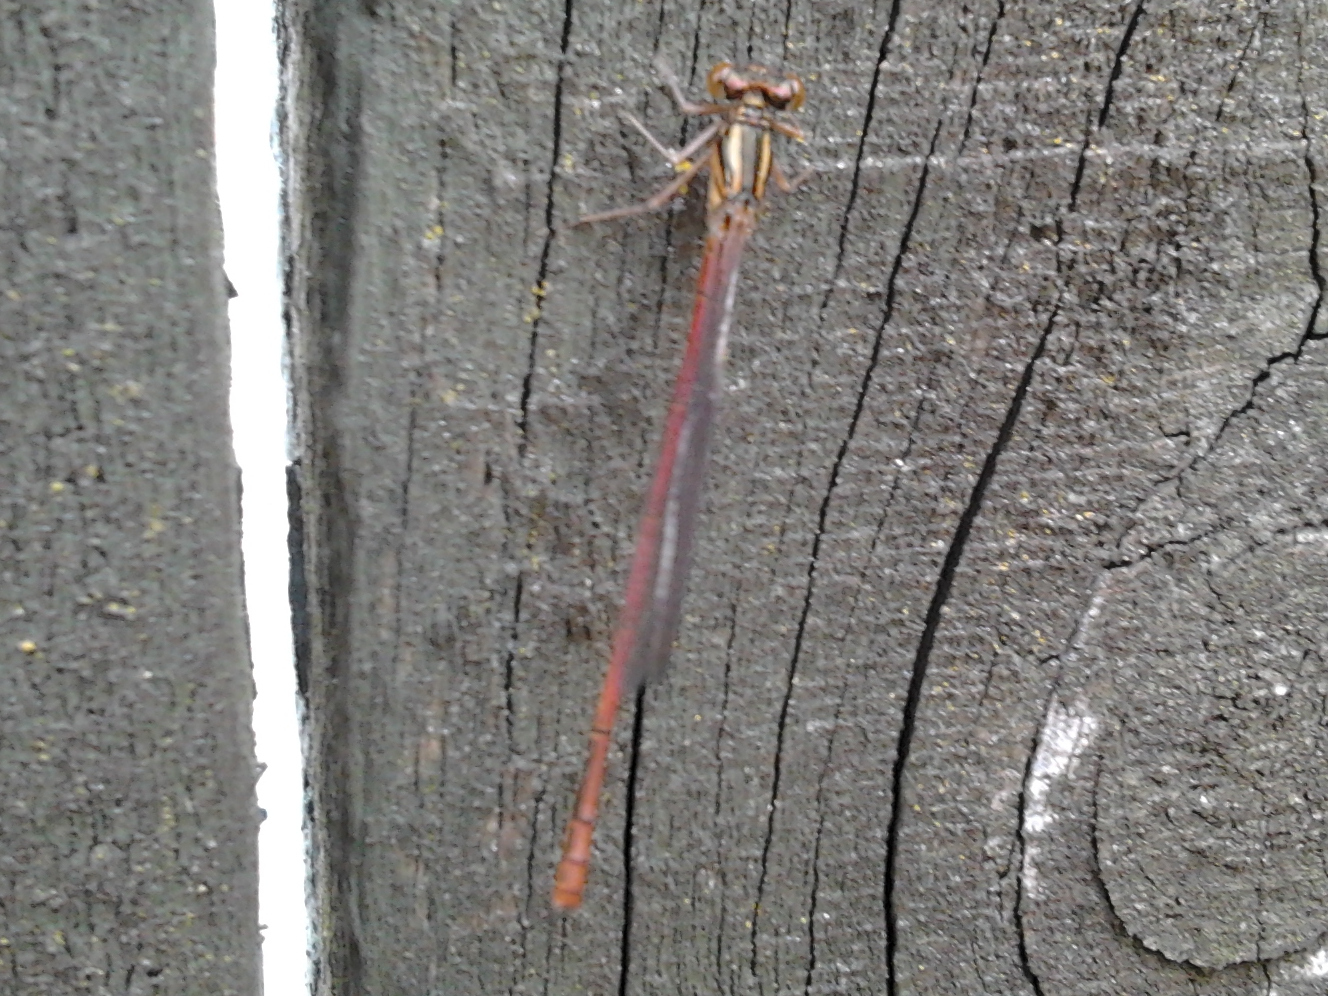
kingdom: Animalia
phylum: Arthropoda
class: Insecta
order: Odonata
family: Coenagrionidae
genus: Xanthocnemis
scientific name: Xanthocnemis zealandica
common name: Common redcoat damselfly
